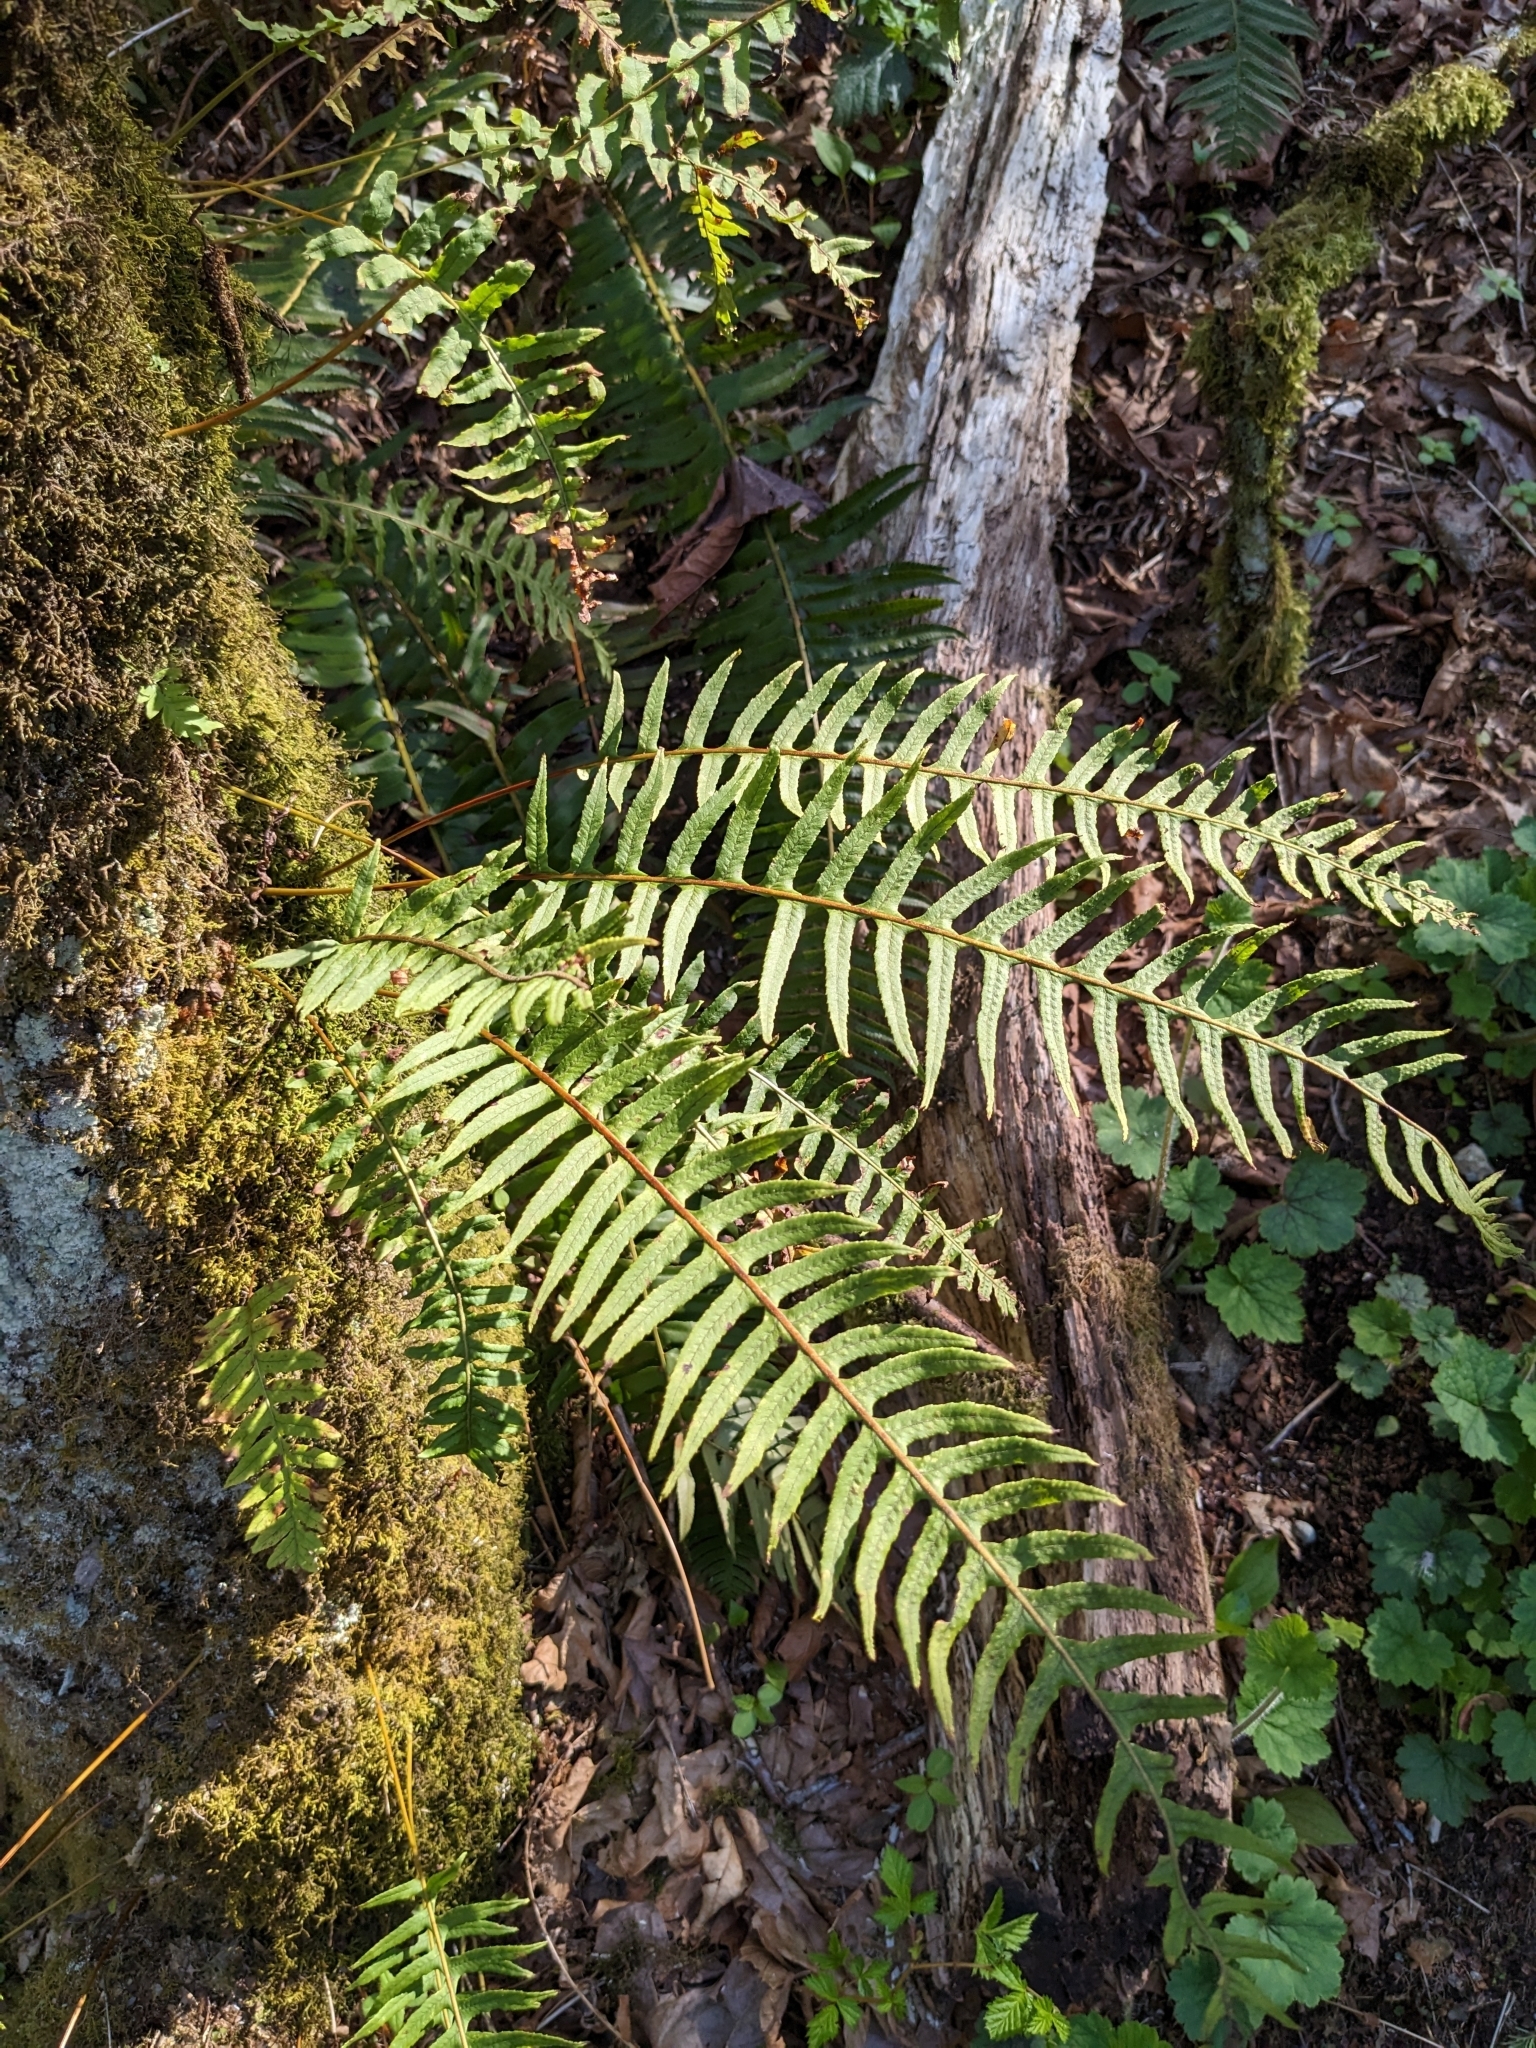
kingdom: Plantae
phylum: Tracheophyta
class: Polypodiopsida
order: Polypodiales
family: Polypodiaceae
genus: Polypodium
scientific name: Polypodium glycyrrhiza
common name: Licorice fern
